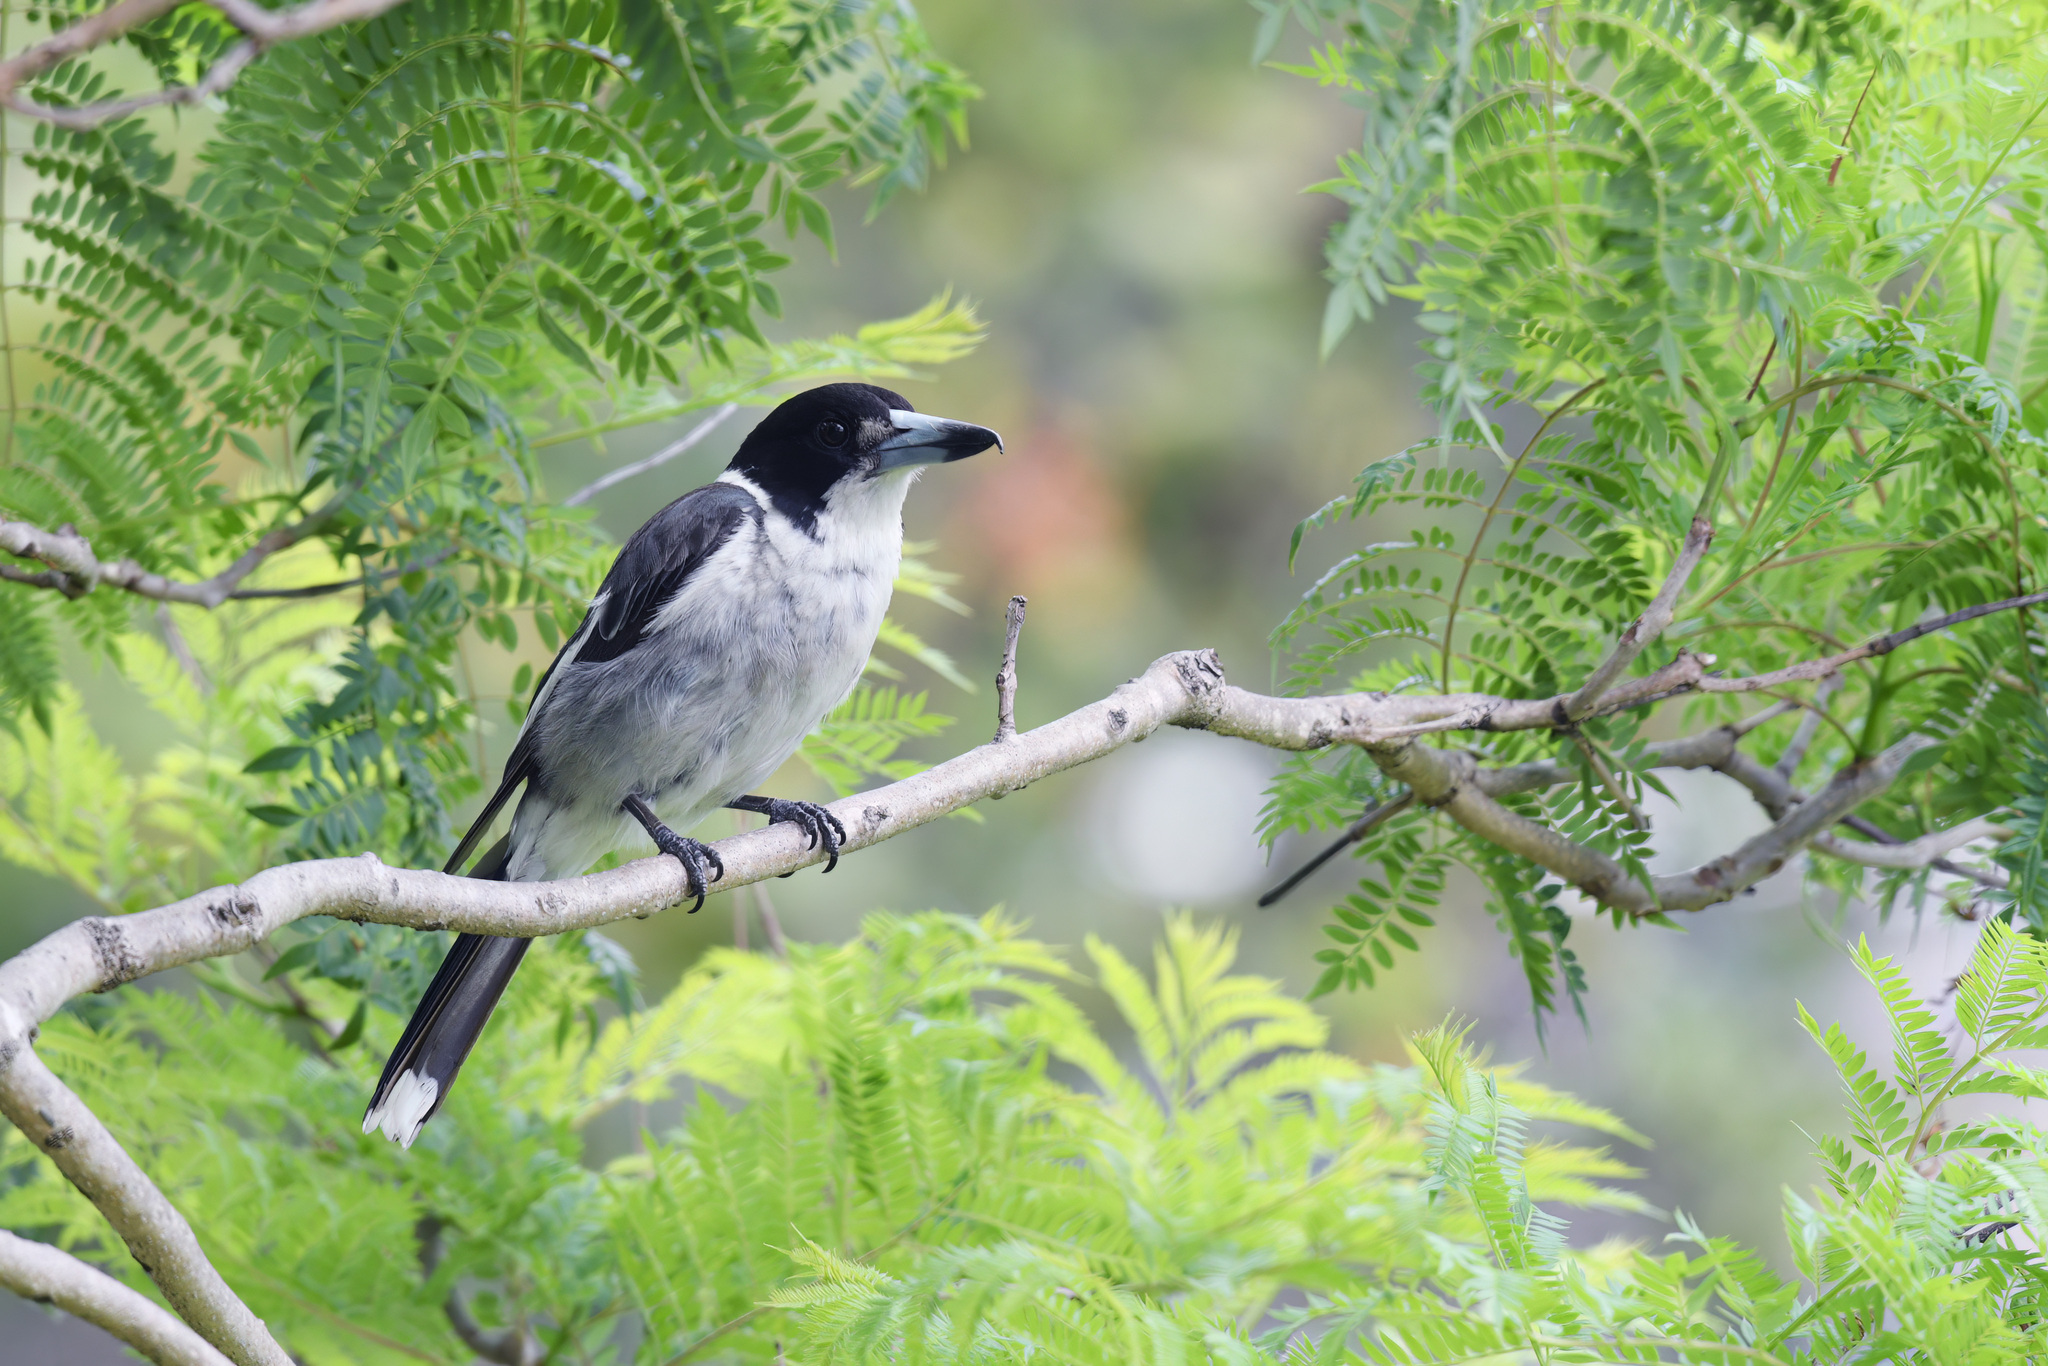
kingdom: Animalia
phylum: Chordata
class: Aves
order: Passeriformes
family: Cracticidae
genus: Cracticus
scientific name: Cracticus torquatus
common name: Grey butcherbird
